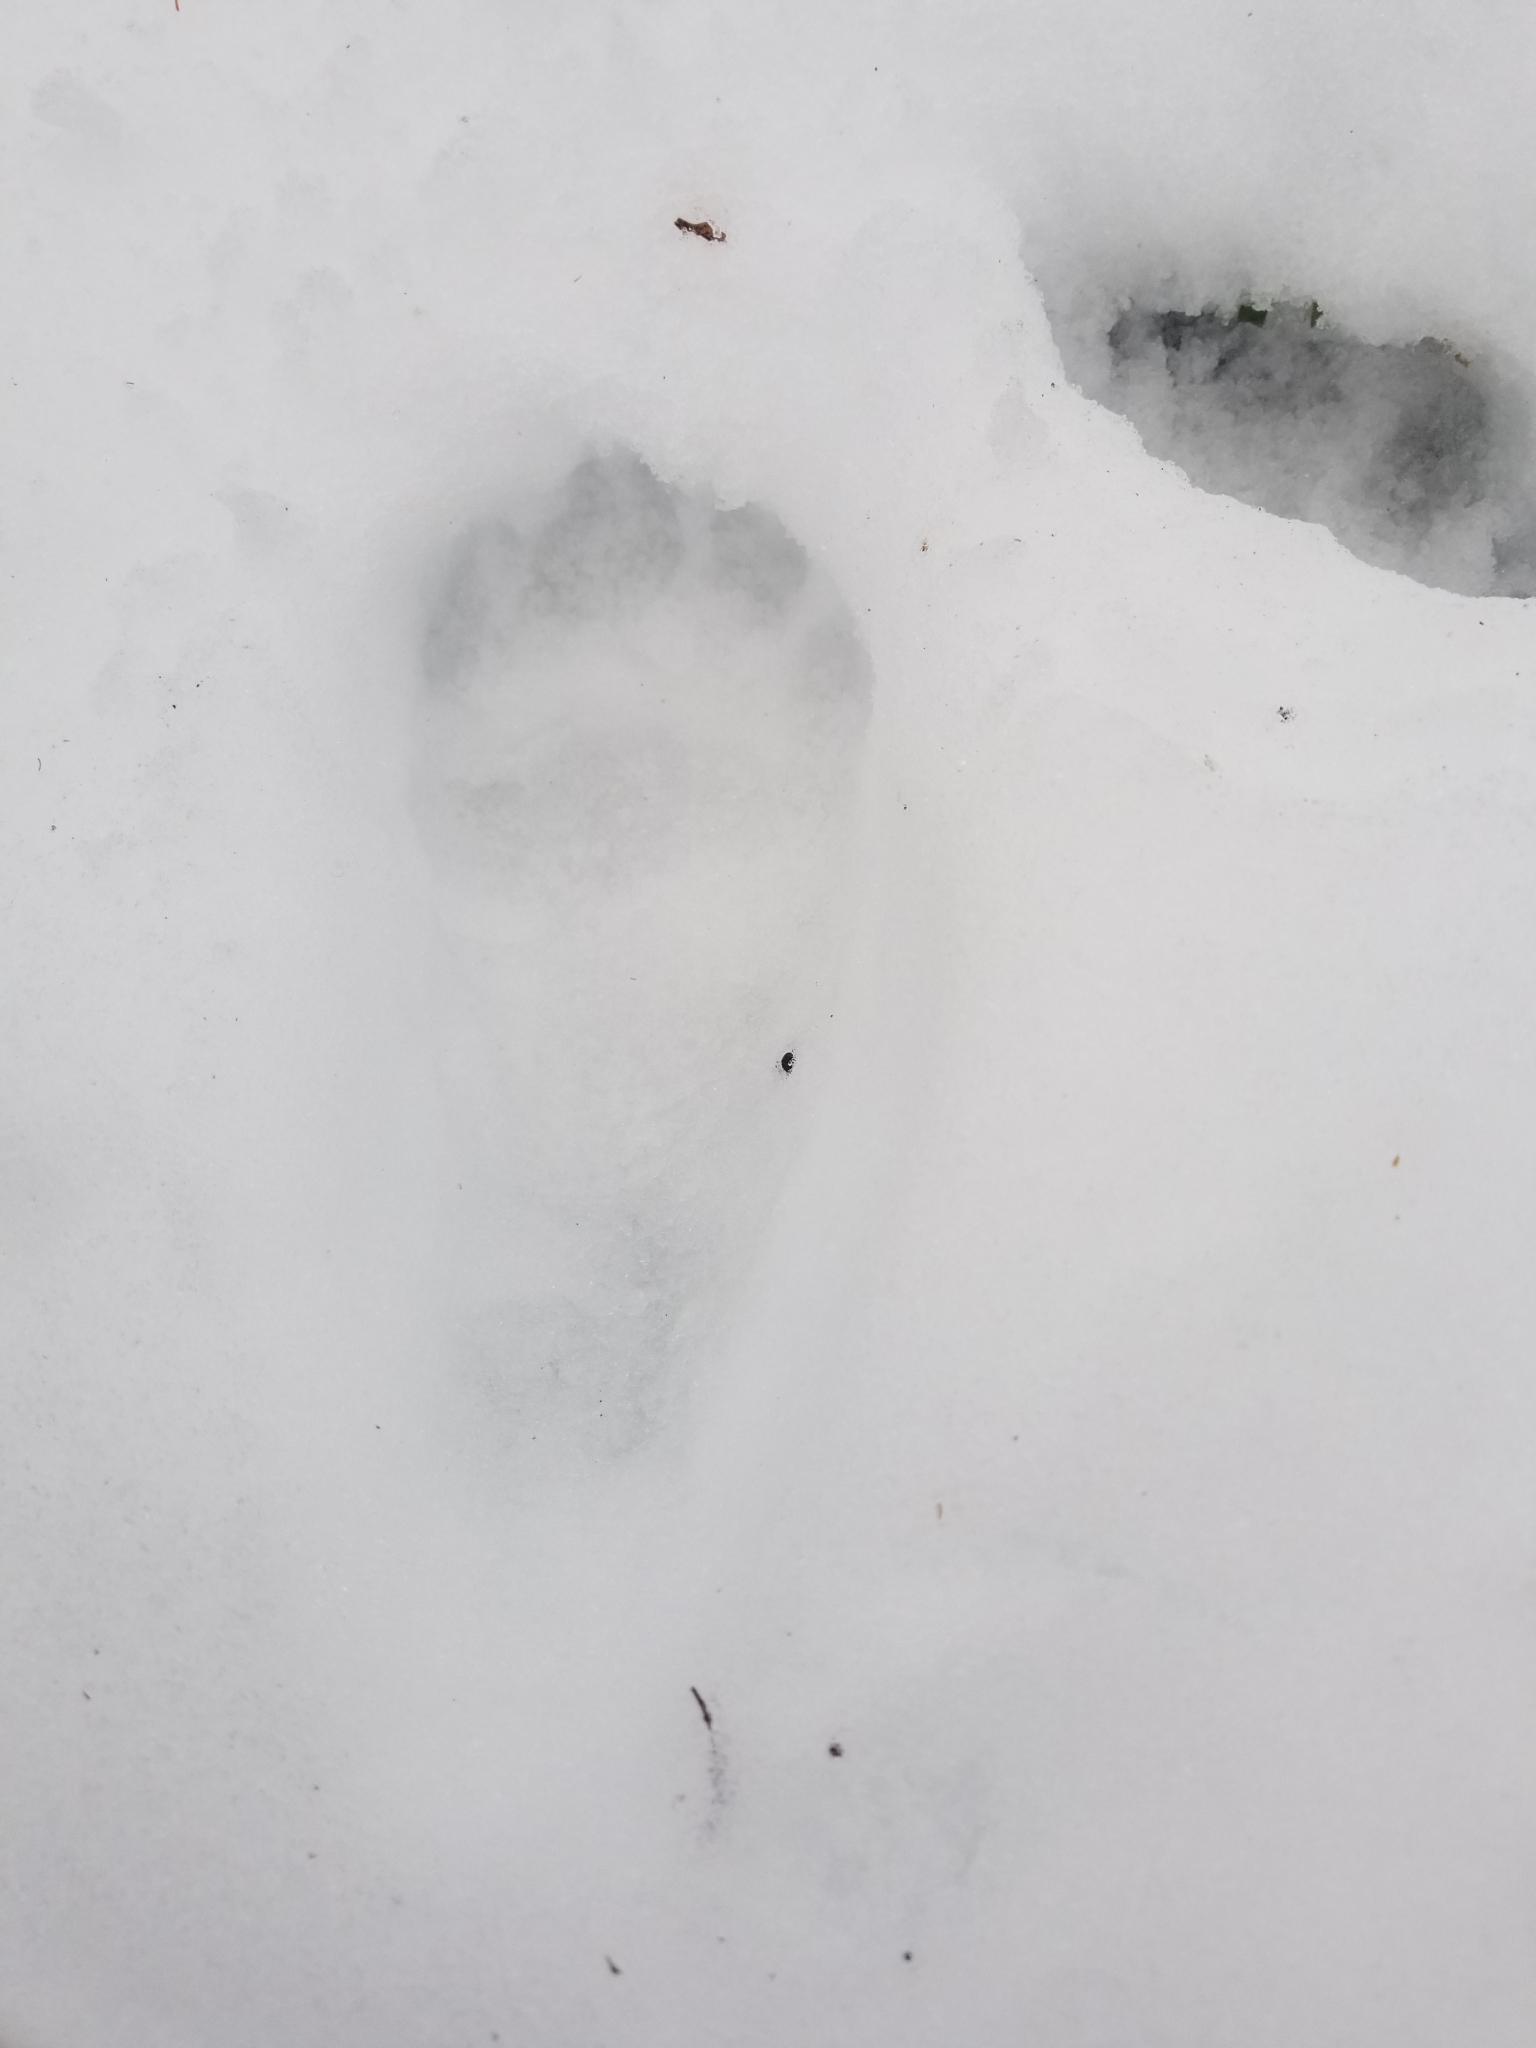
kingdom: Animalia
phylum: Chordata
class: Mammalia
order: Carnivora
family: Ursidae
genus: Ursus
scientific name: Ursus americanus
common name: American black bear
